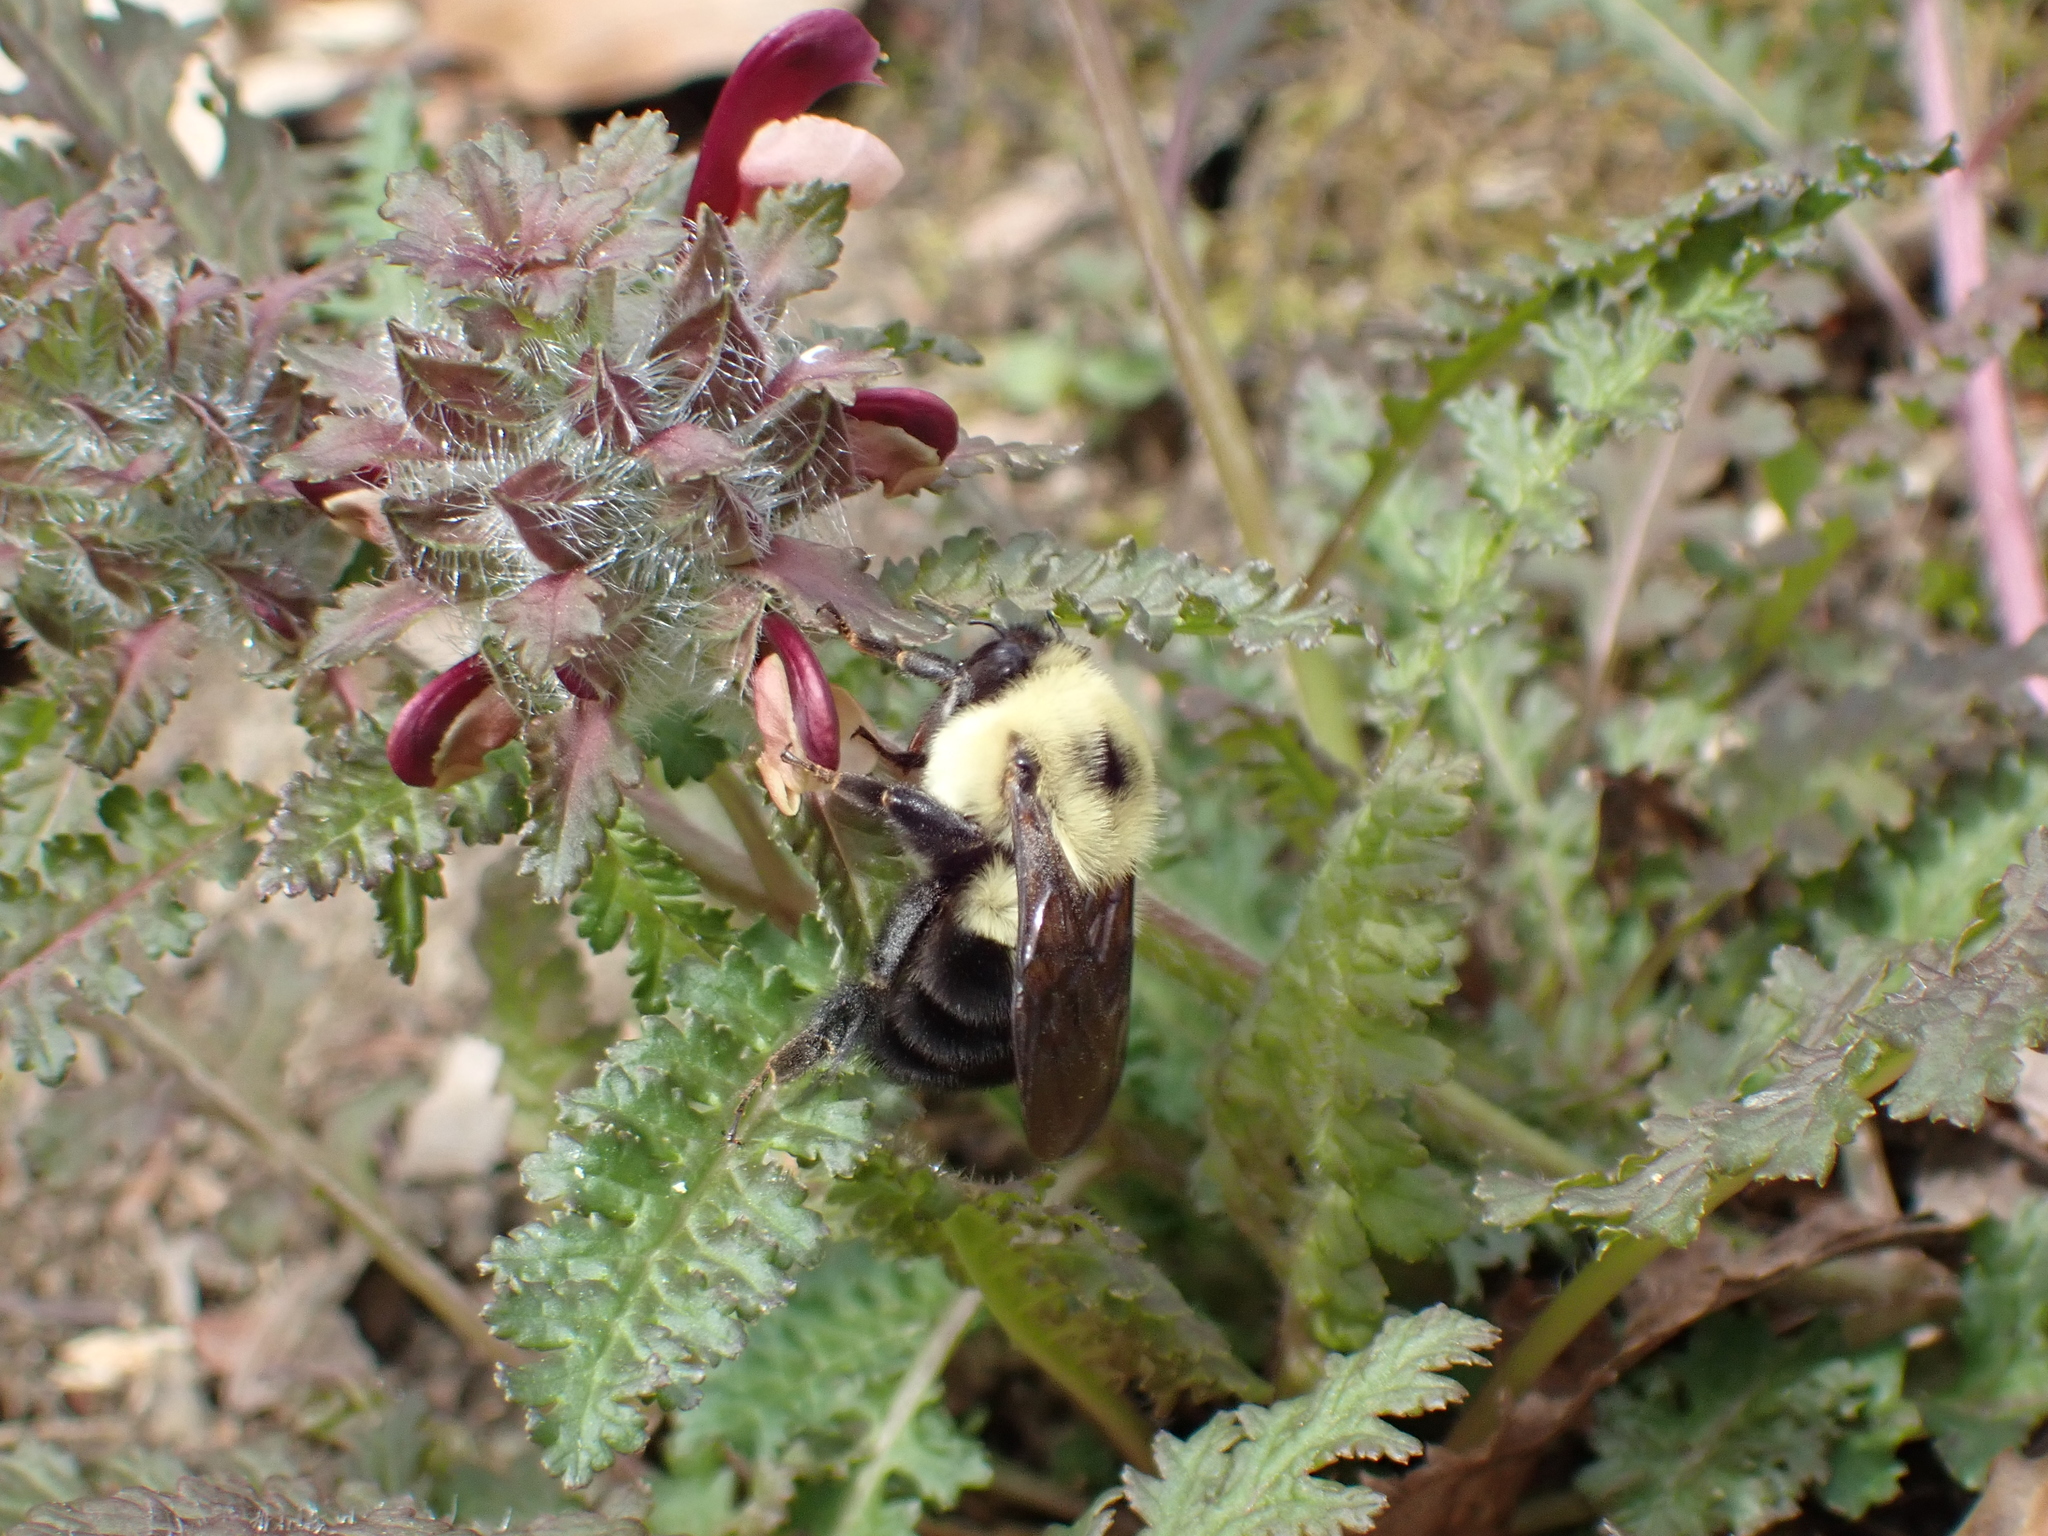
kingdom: Animalia
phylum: Arthropoda
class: Insecta
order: Hymenoptera
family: Apidae
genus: Bombus
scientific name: Bombus bimaculatus
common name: Two-spotted bumble bee
